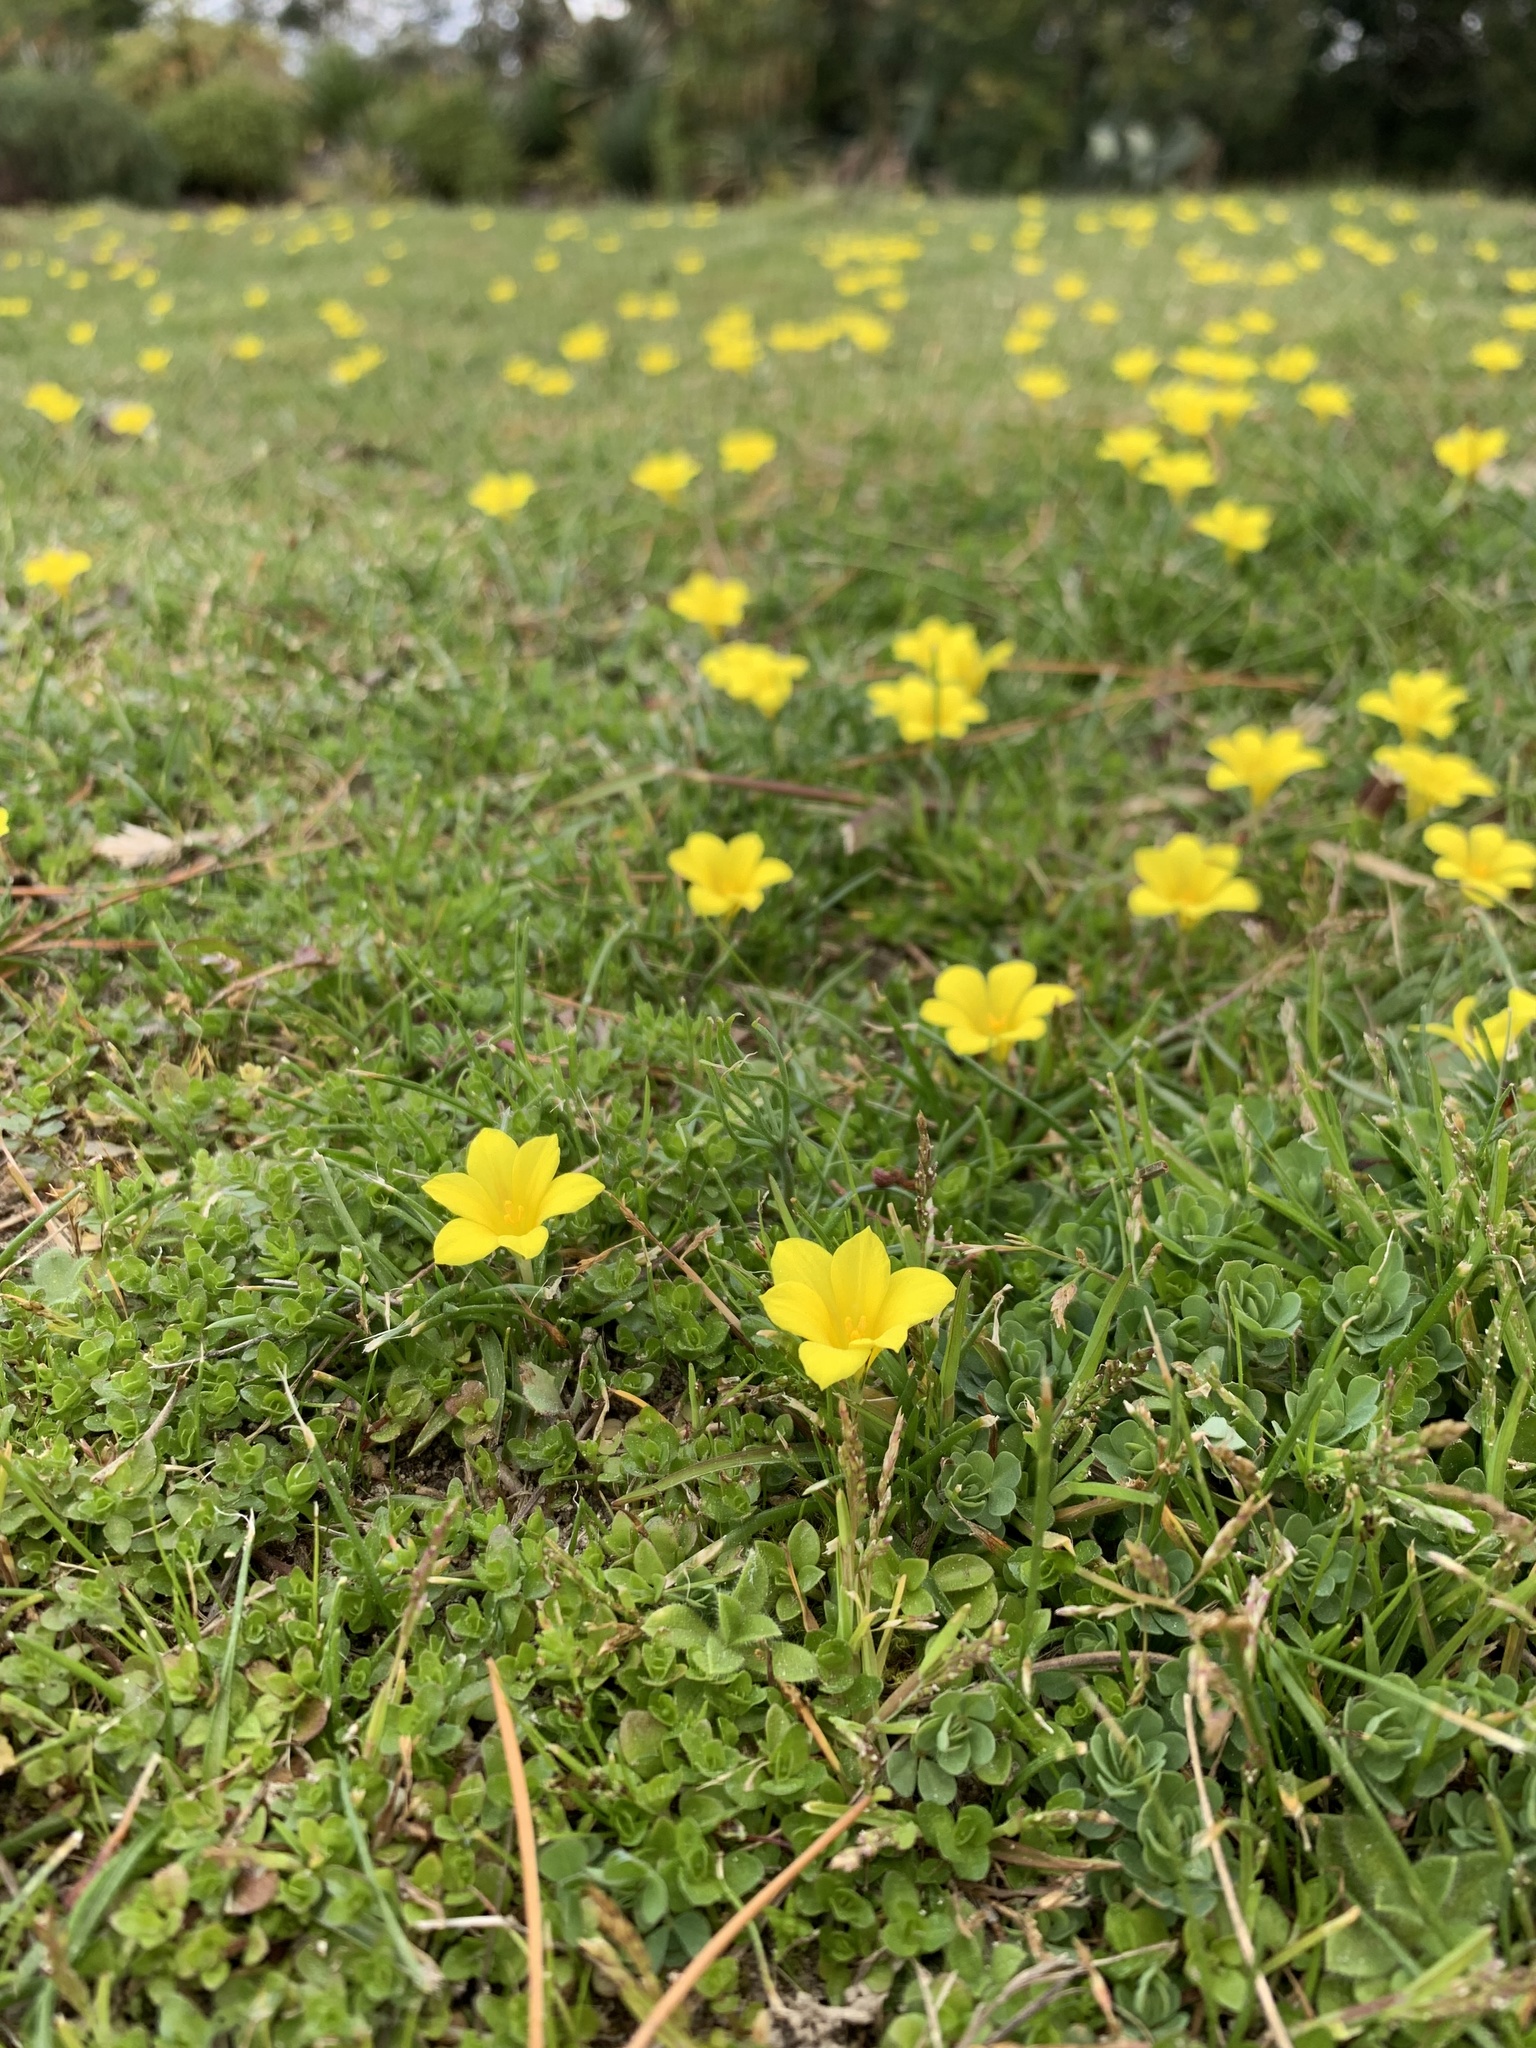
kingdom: Plantae
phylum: Tracheophyta
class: Liliopsida
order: Asparagales
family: Iridaceae
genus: Moraea
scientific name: Moraea fugacissima
